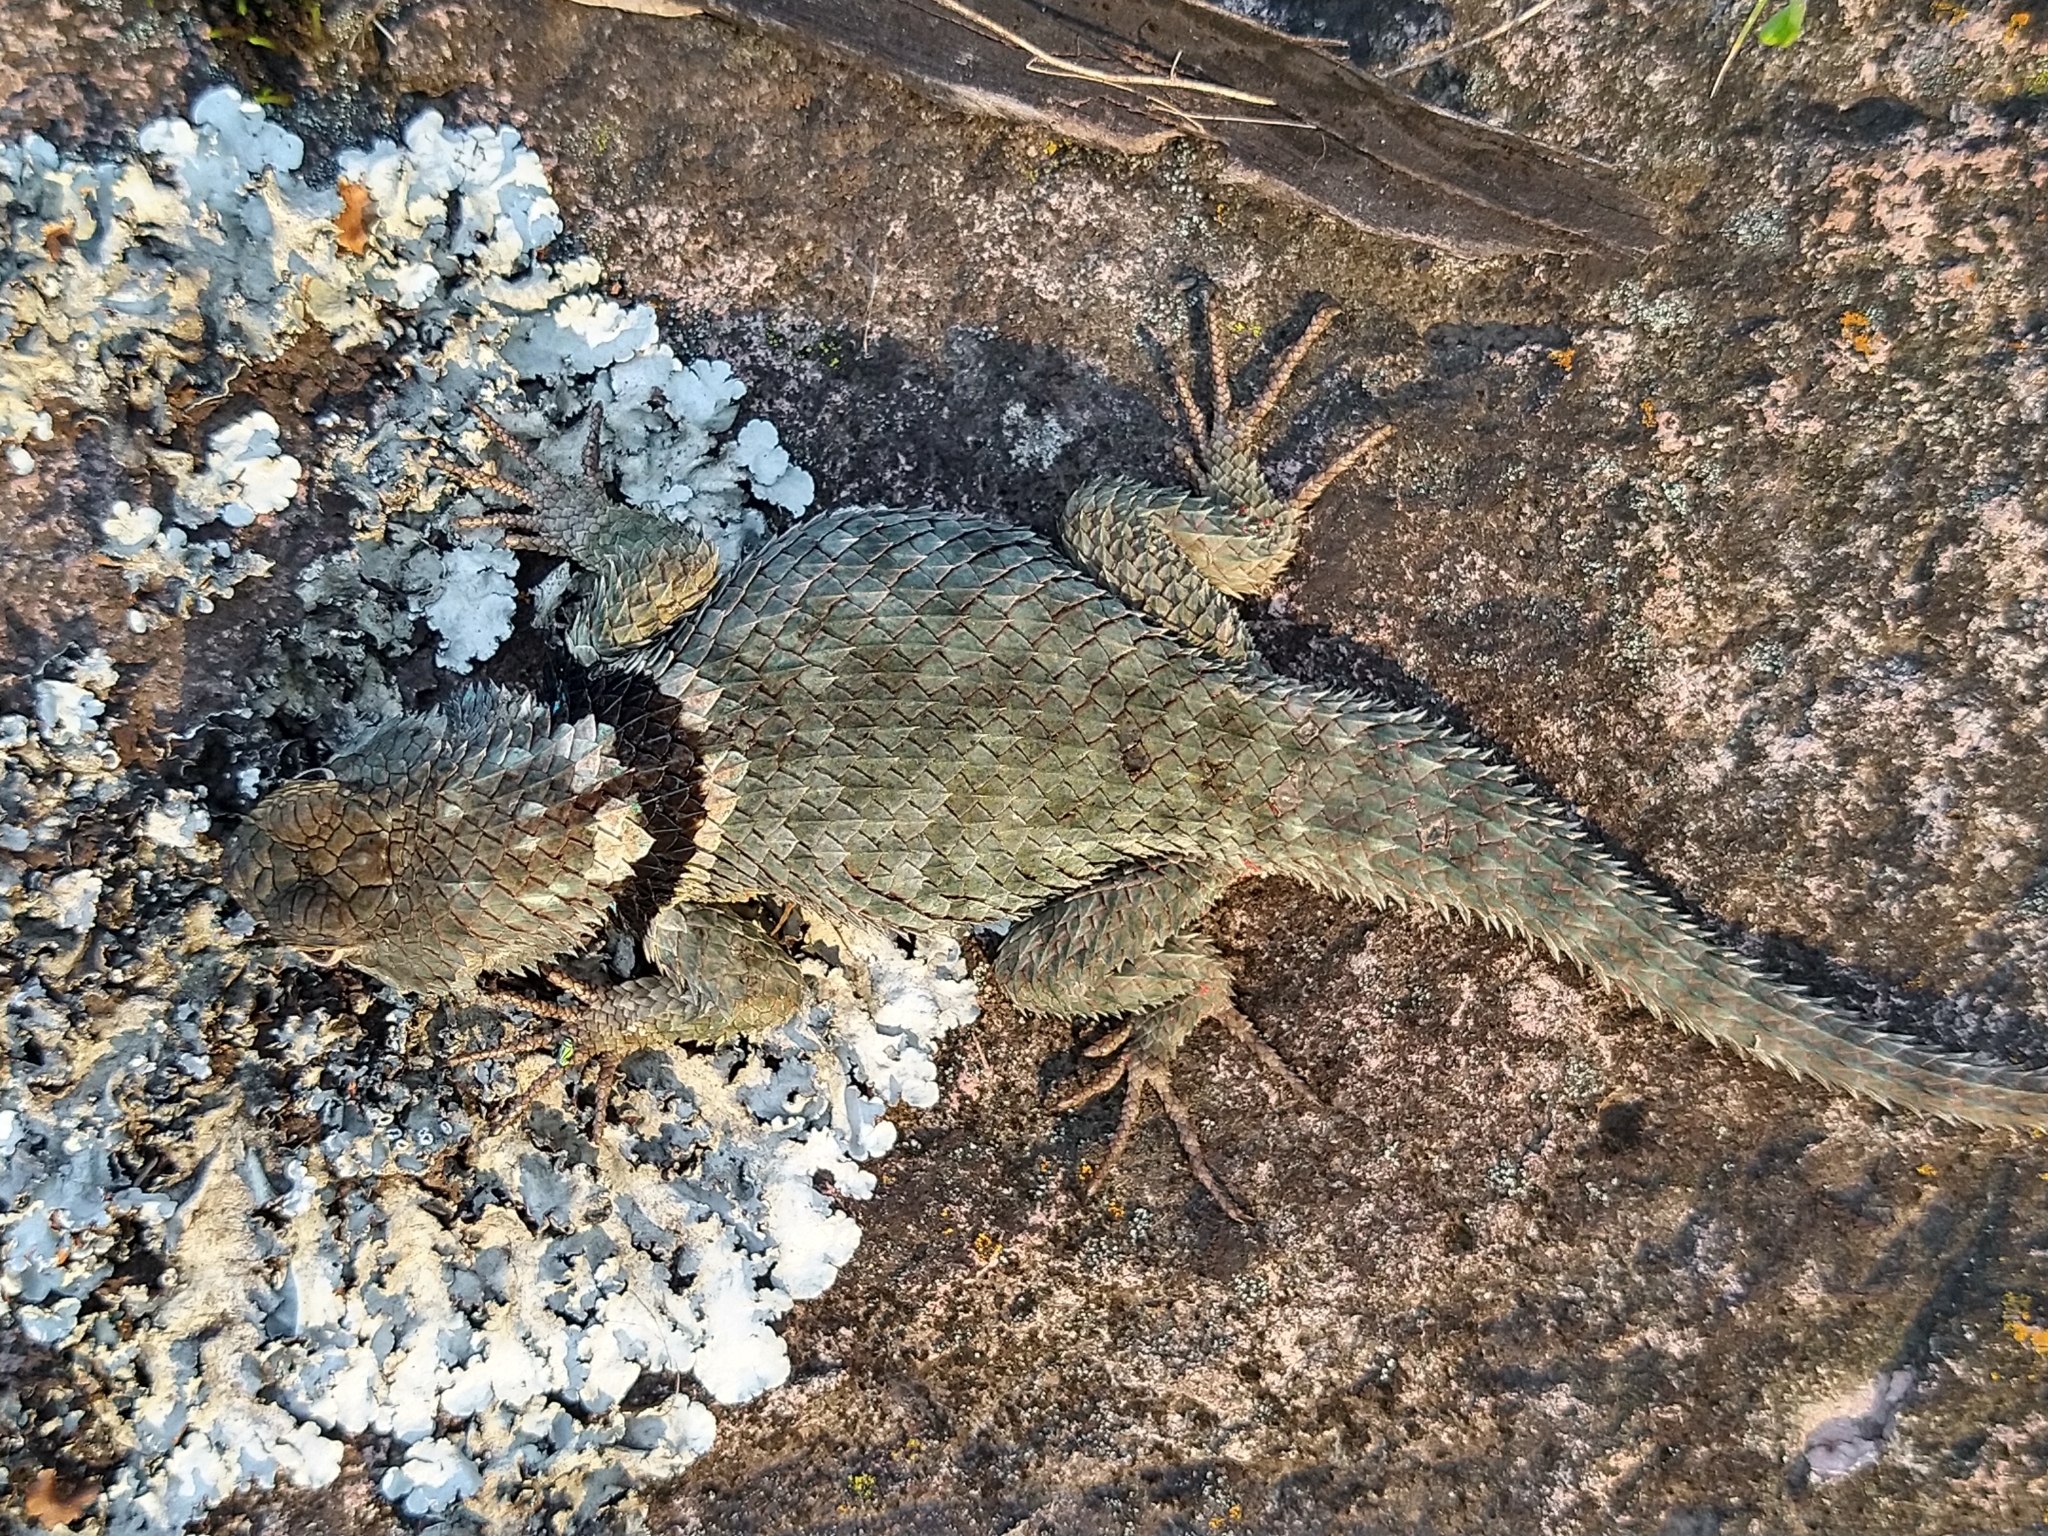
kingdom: Animalia
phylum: Chordata
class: Squamata
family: Phrynosomatidae
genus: Sceloporus
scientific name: Sceloporus torquatus
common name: Central plateau torquate lizard [melanogaster]
